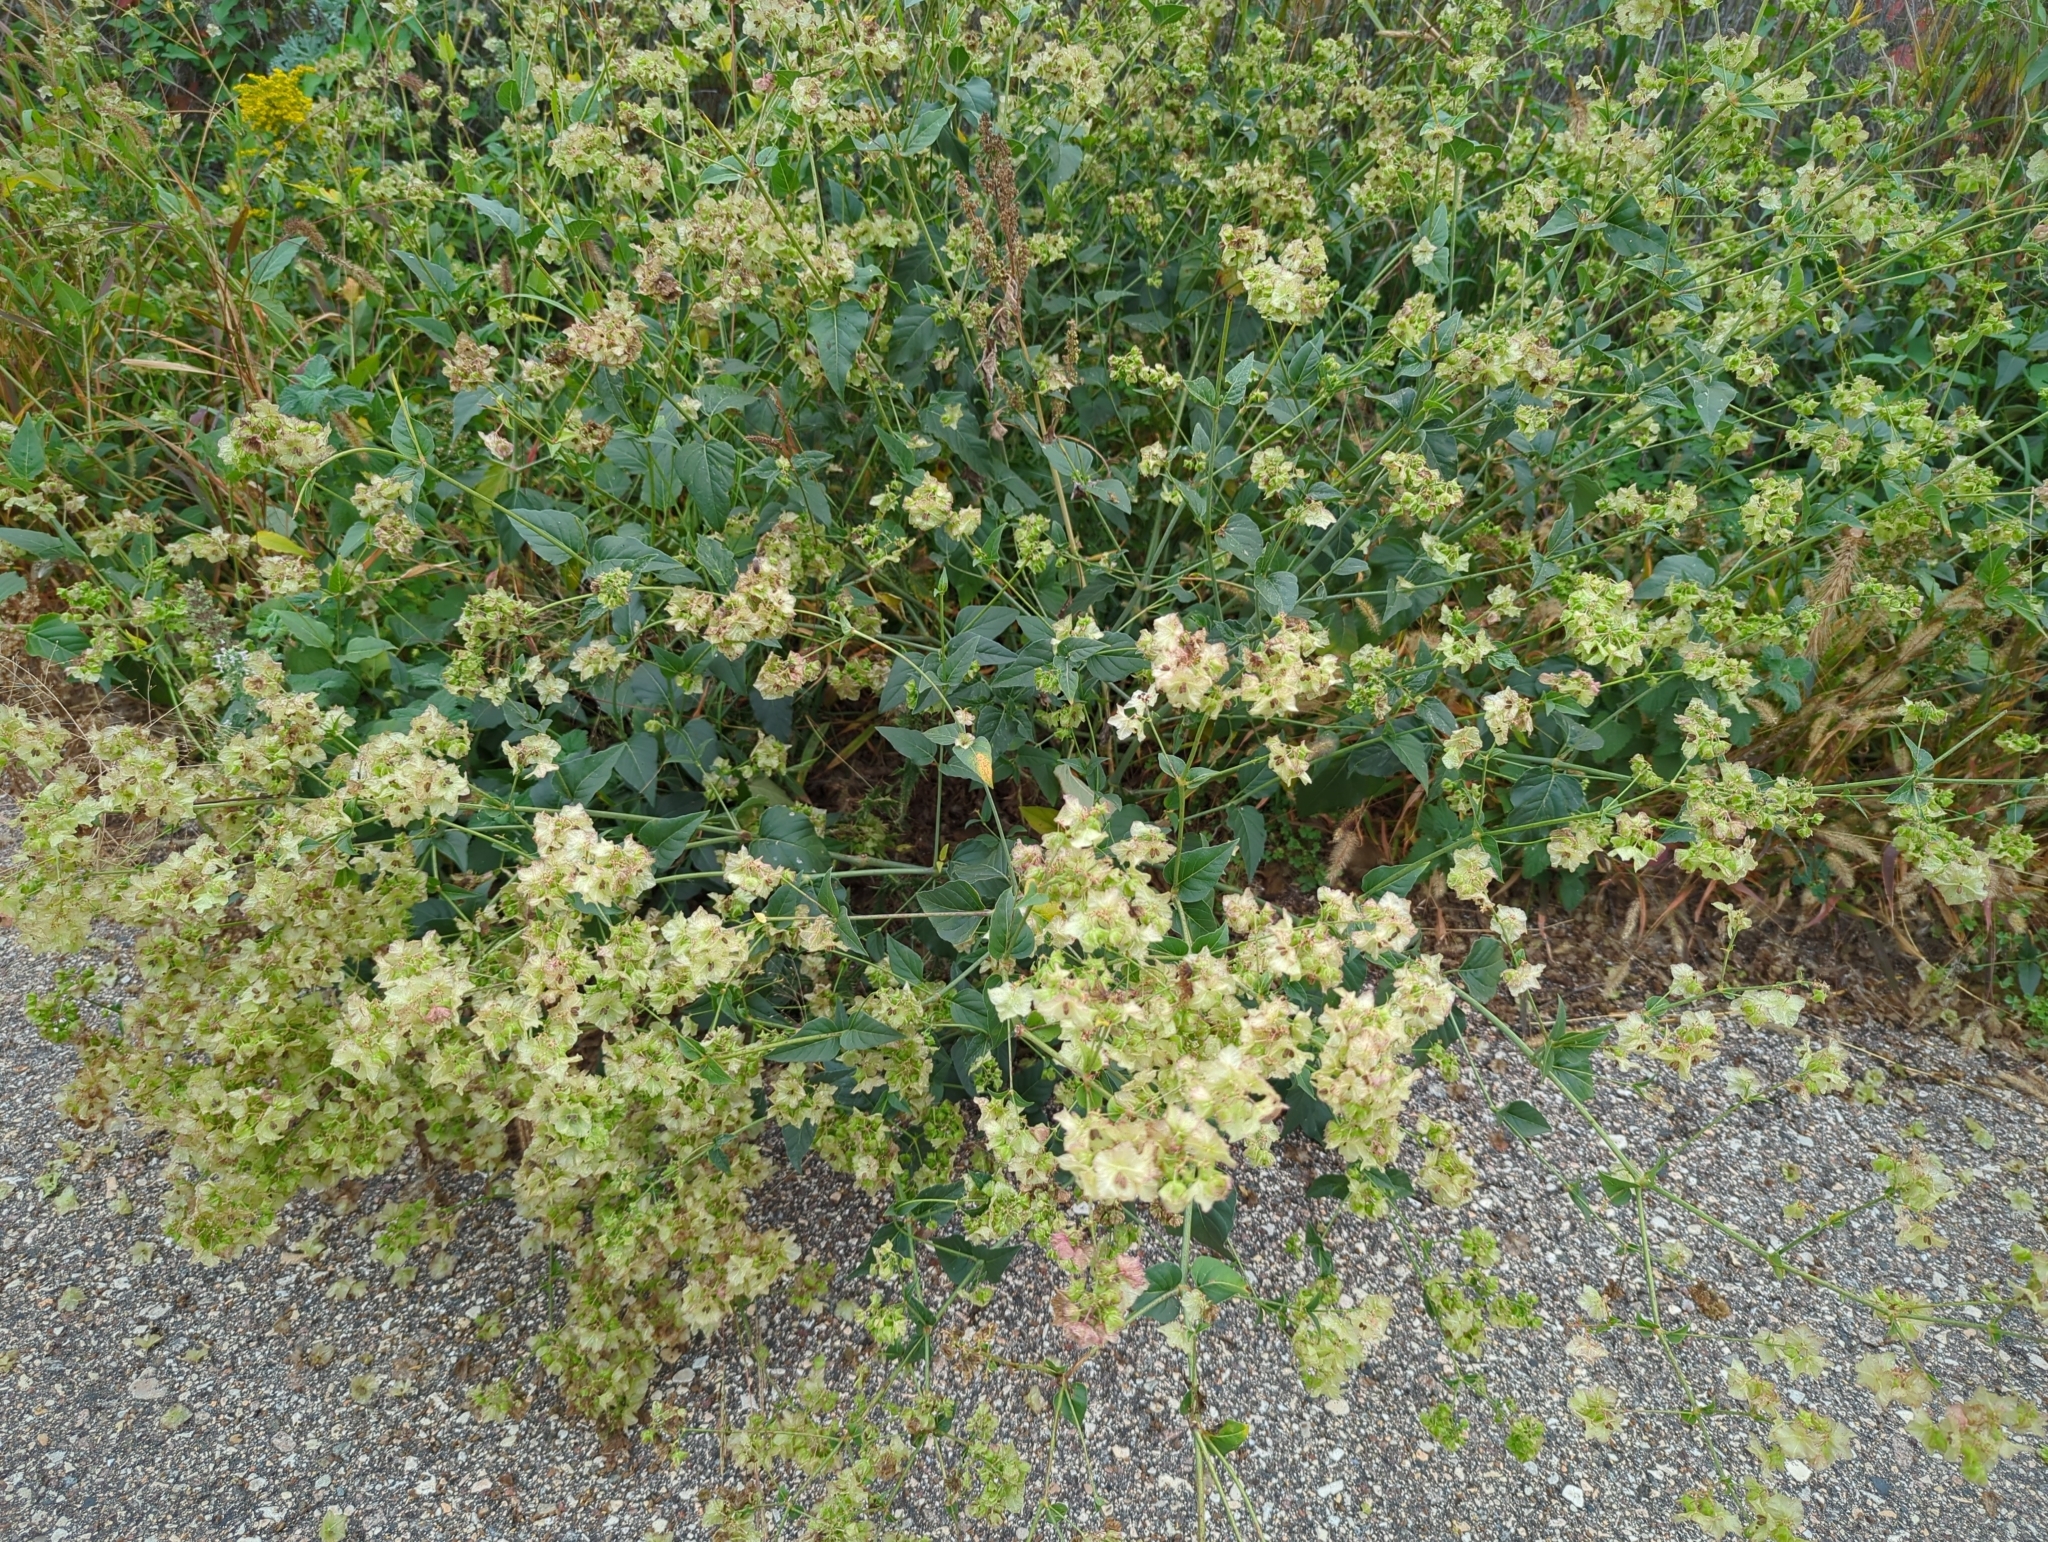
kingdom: Plantae
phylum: Tracheophyta
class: Magnoliopsida
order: Caryophyllales
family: Nyctaginaceae
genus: Mirabilis
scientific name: Mirabilis nyctaginea
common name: Umbrella wort
